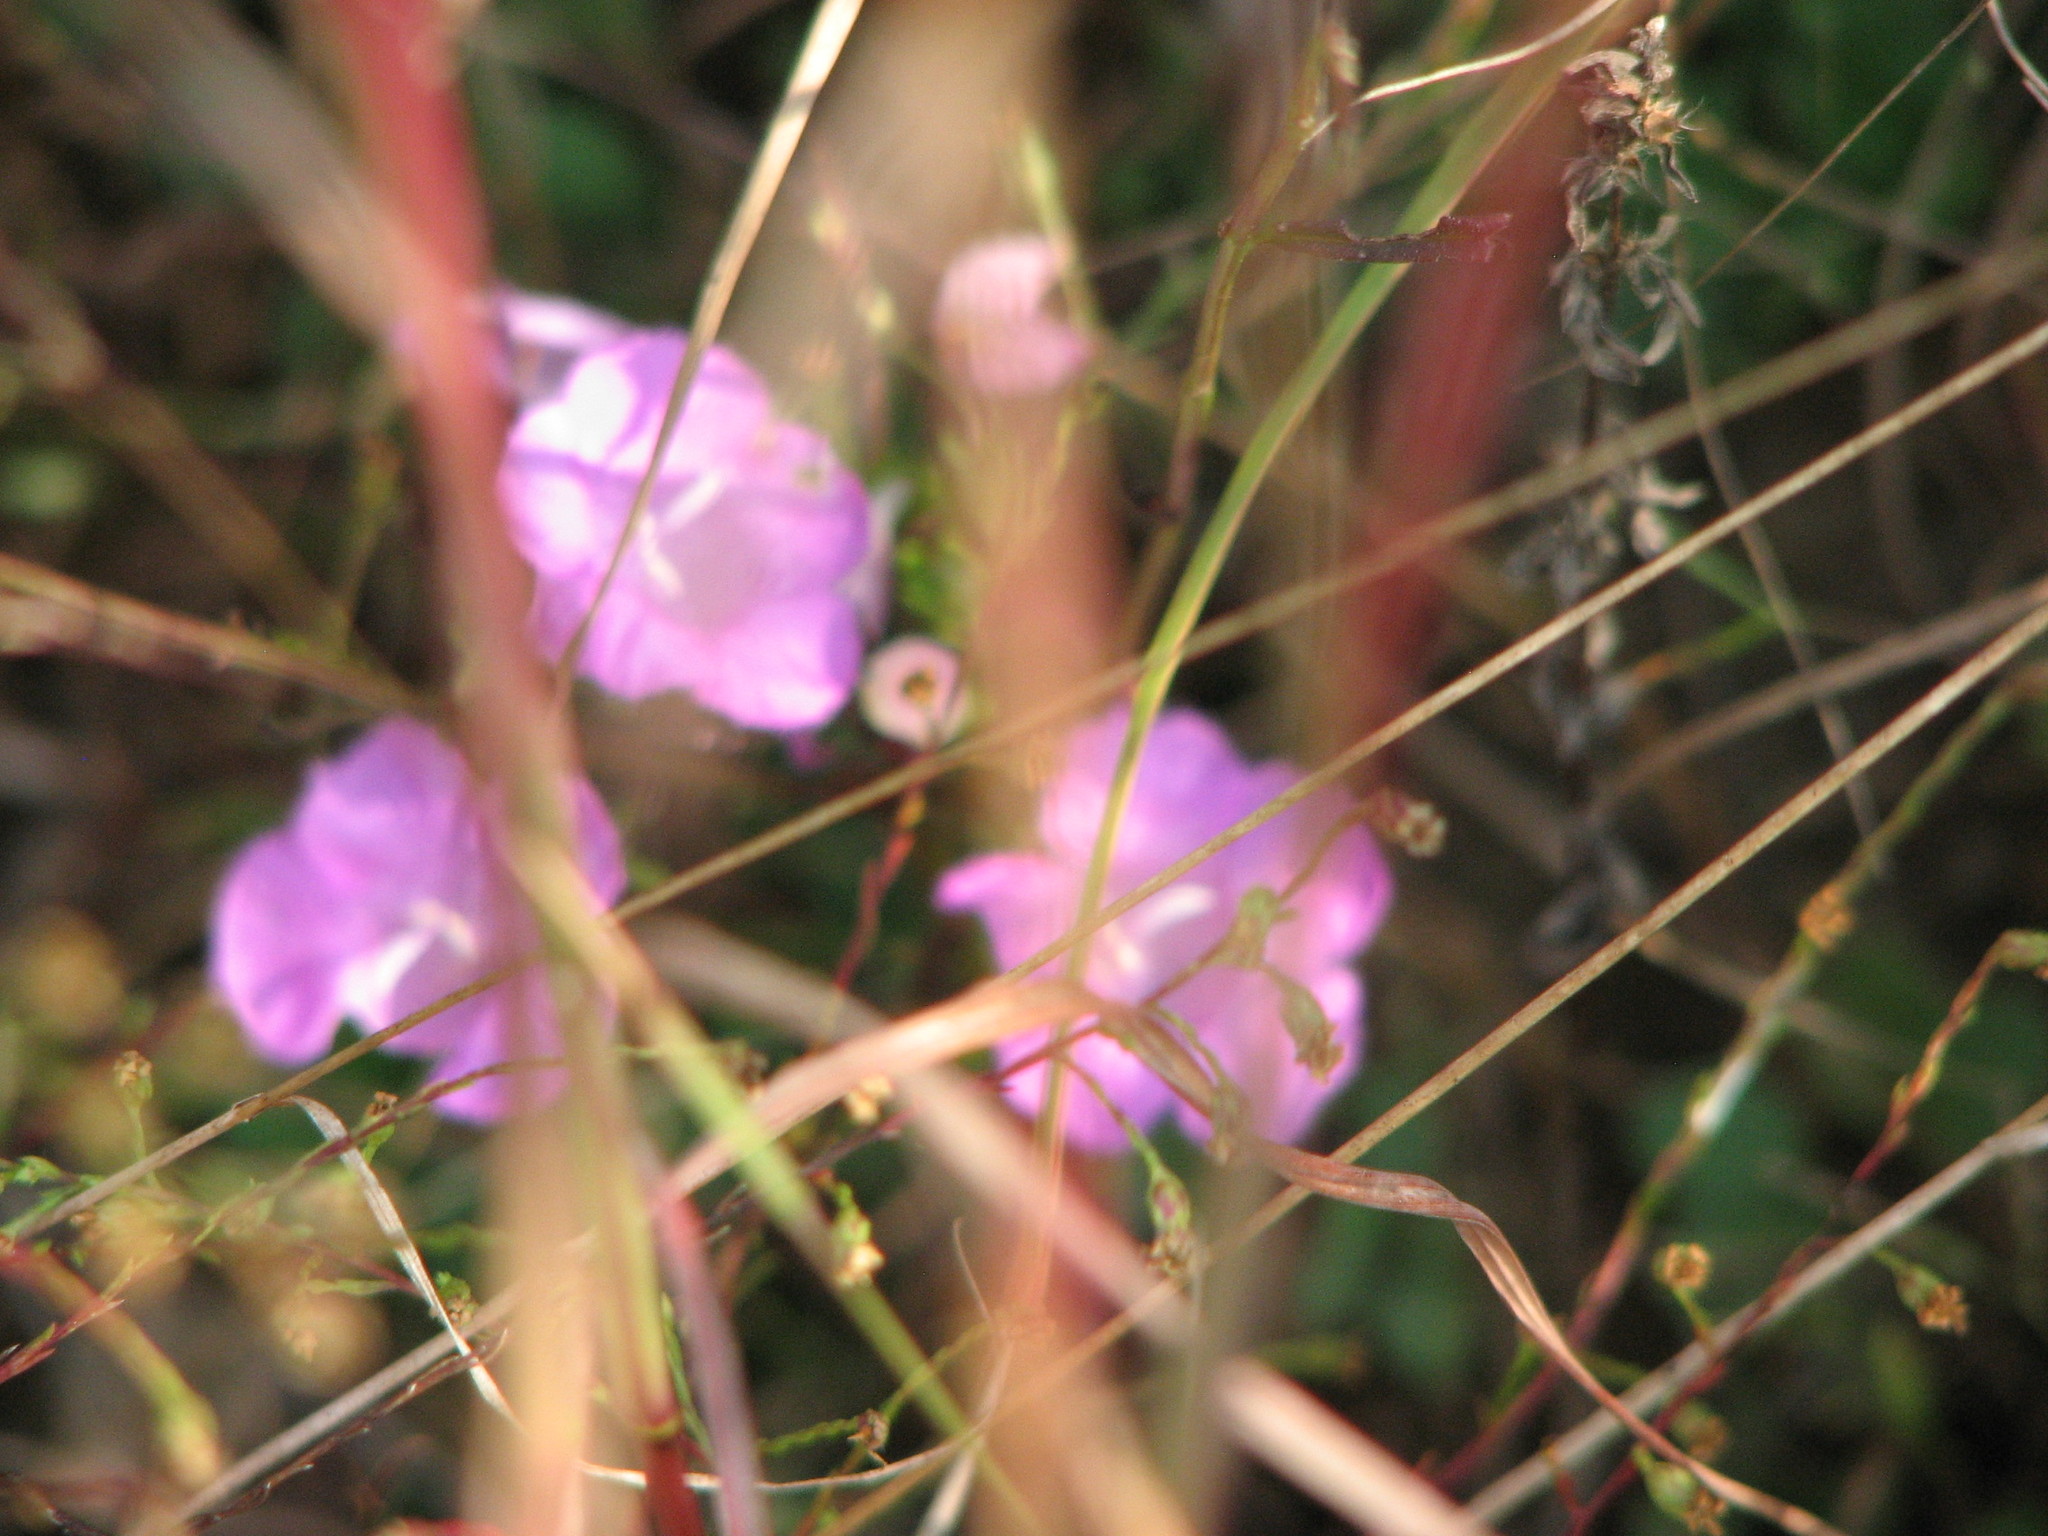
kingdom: Plantae
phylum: Tracheophyta
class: Magnoliopsida
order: Lamiales
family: Orobanchaceae
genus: Agalinis
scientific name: Agalinis purpurea
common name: Purple false foxglove
